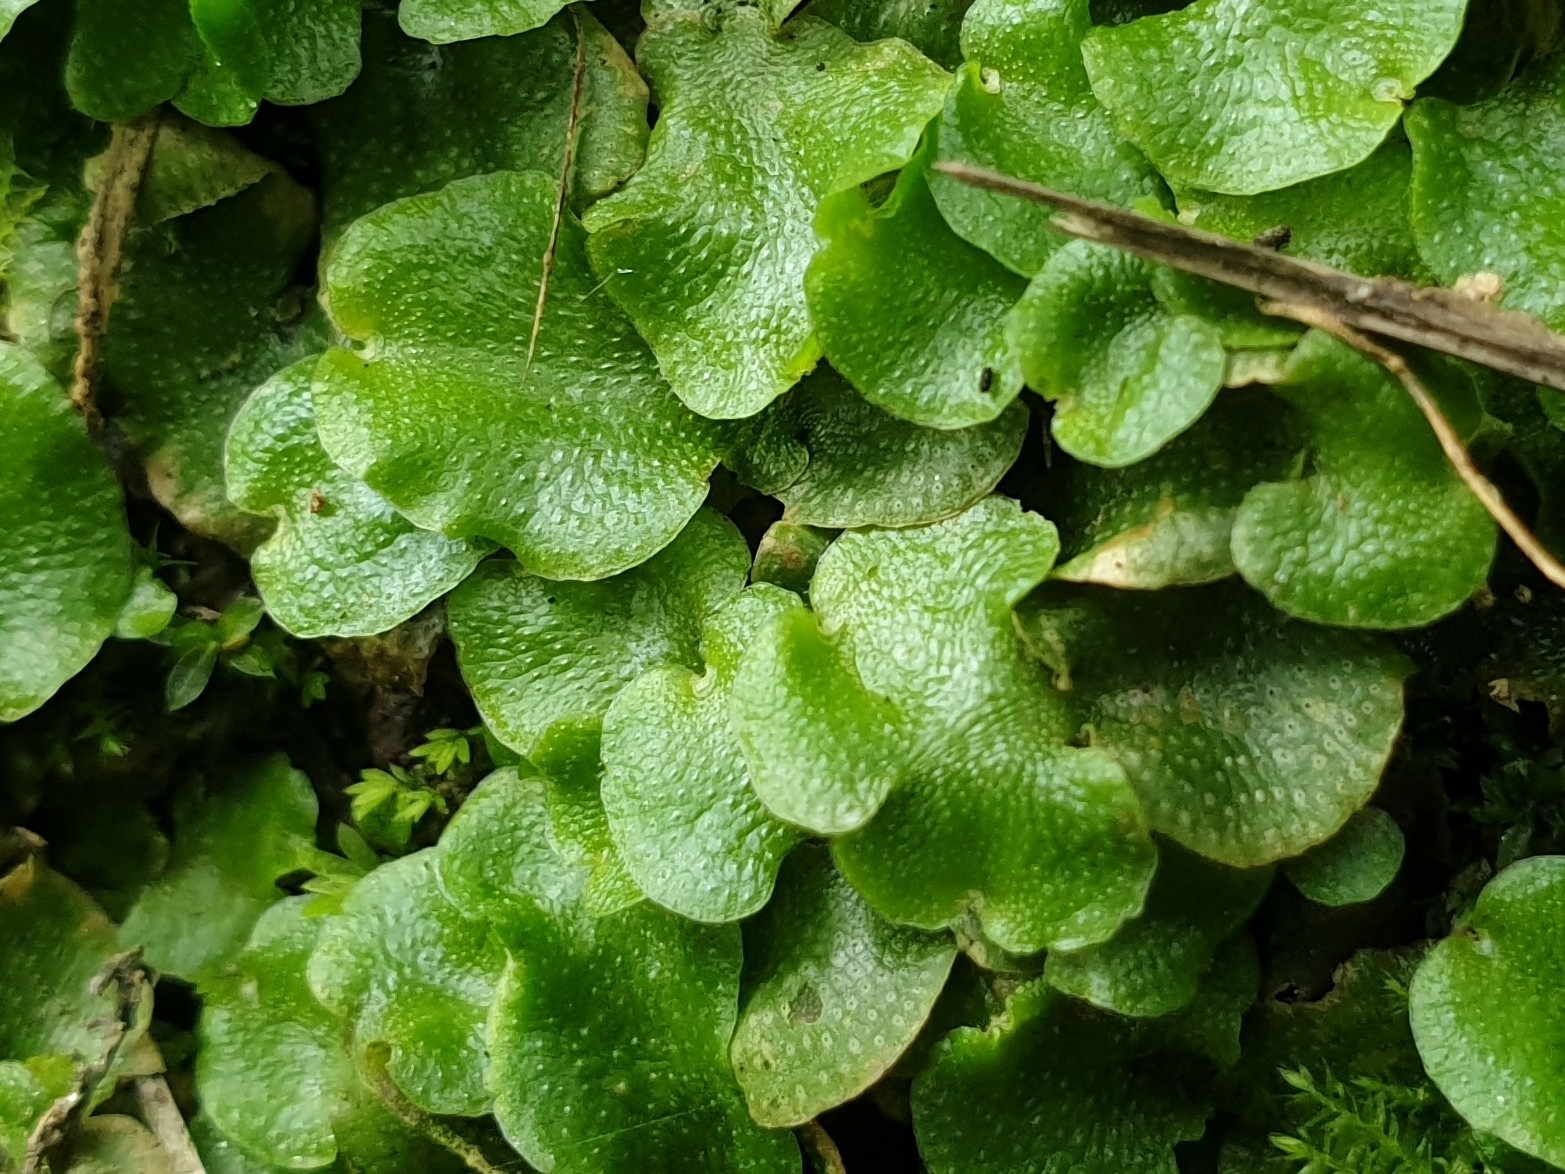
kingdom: Plantae
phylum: Marchantiophyta
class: Marchantiopsida
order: Lunulariales
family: Lunulariaceae
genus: Lunularia
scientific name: Lunularia cruciata
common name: Crescent-cup liverwort
